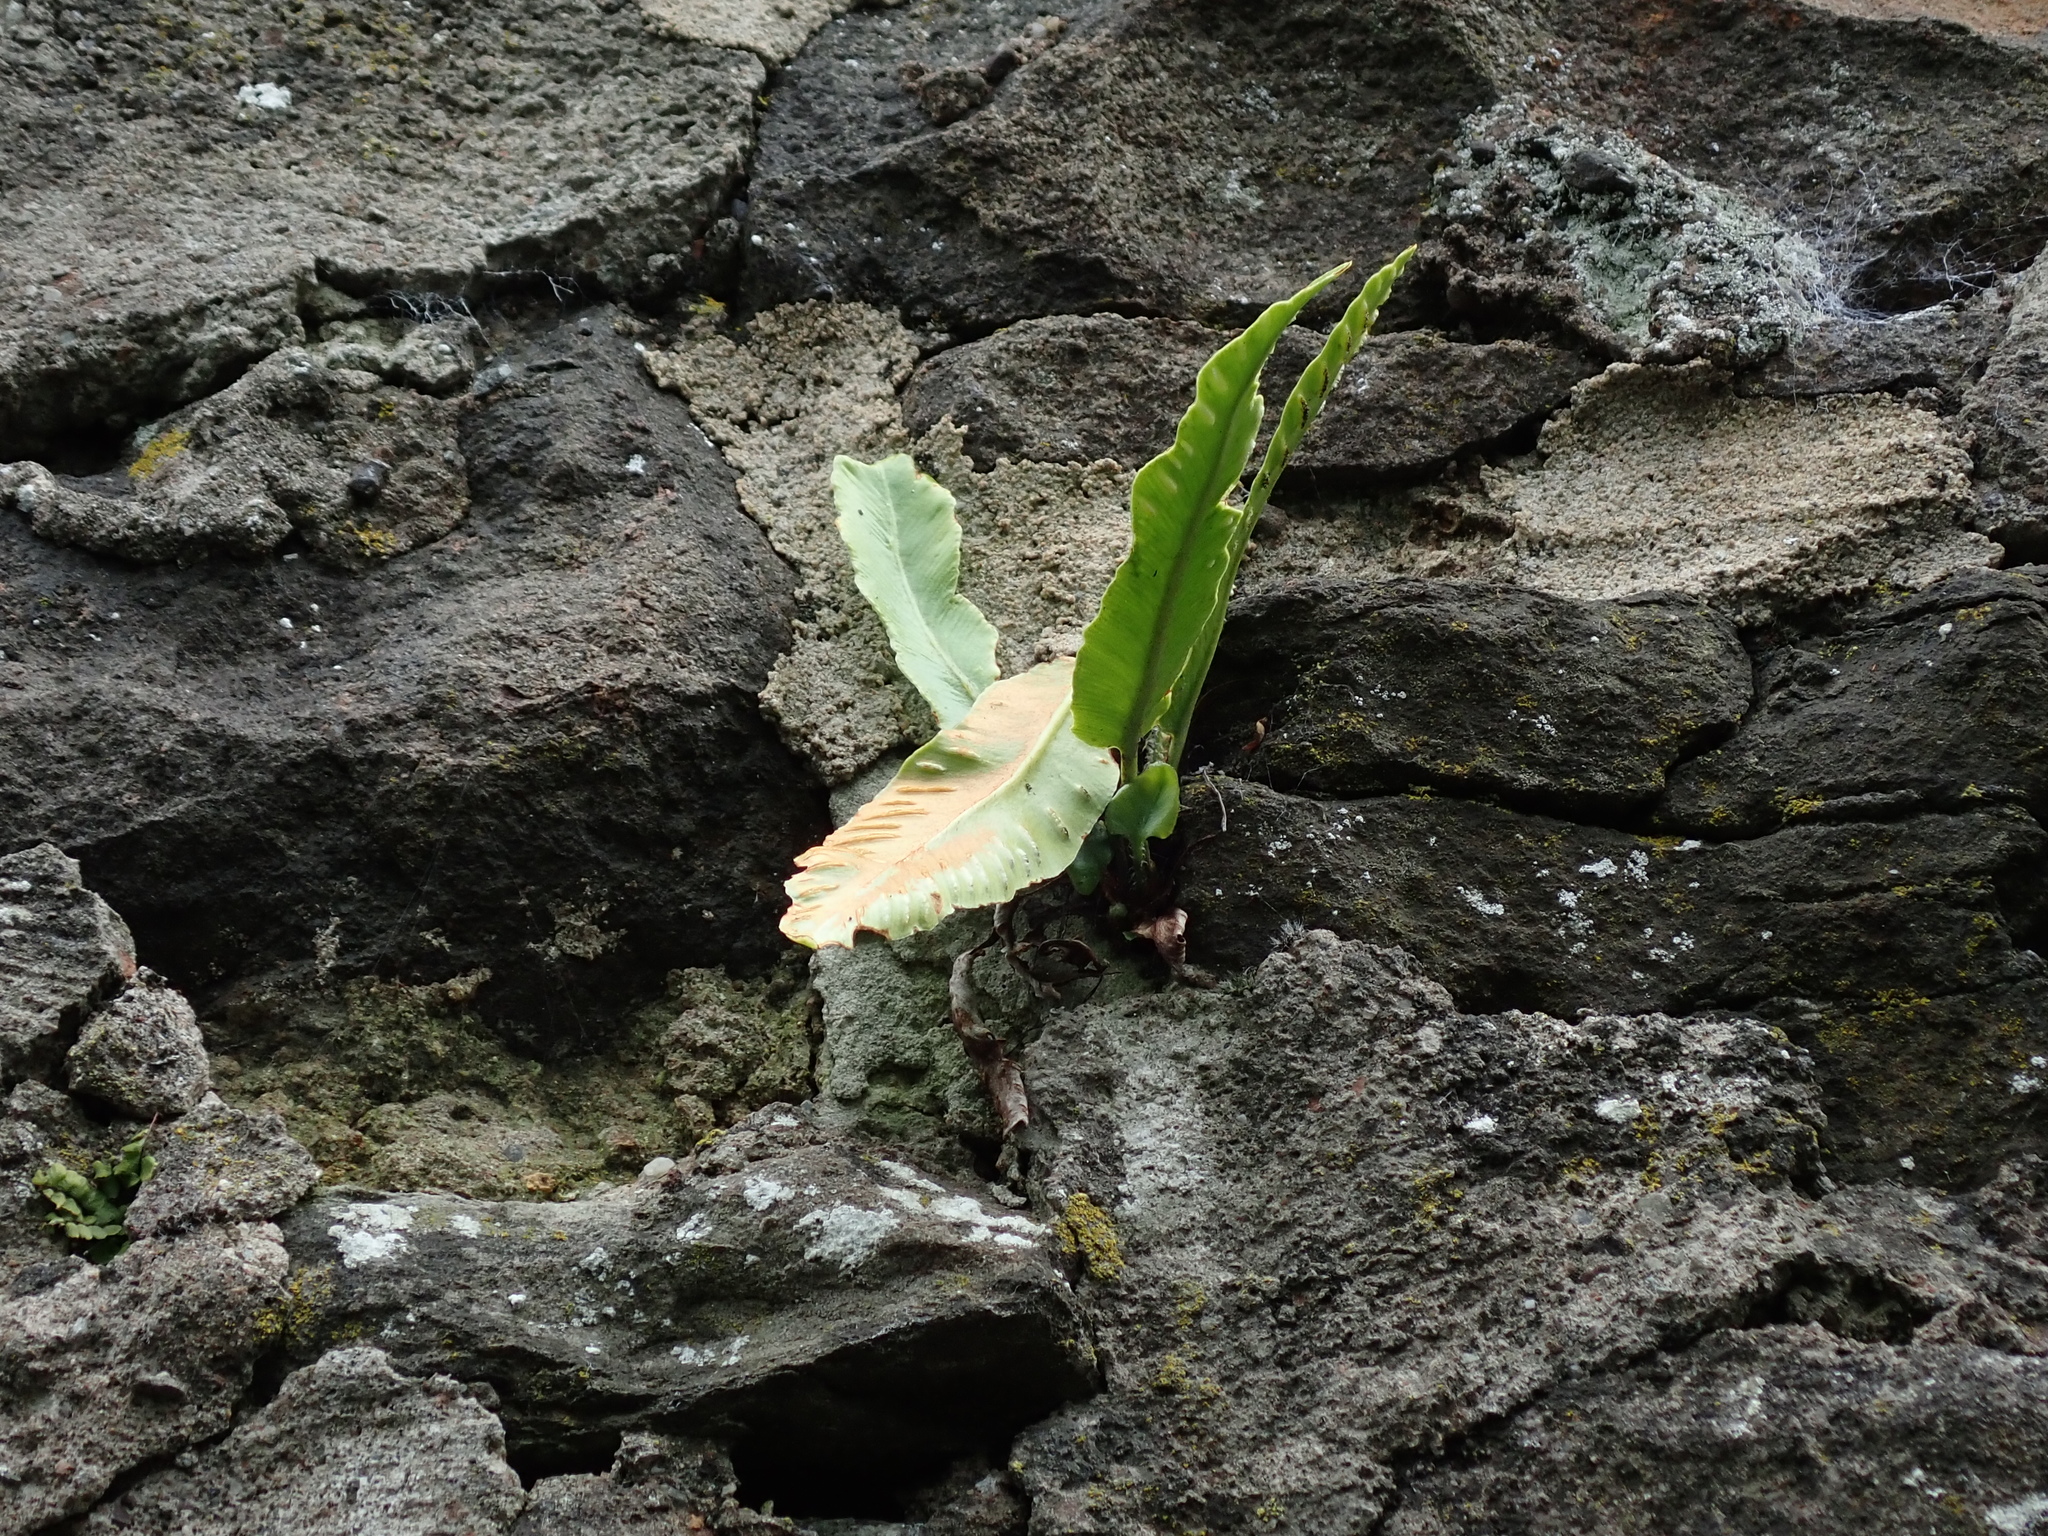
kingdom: Plantae
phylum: Tracheophyta
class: Polypodiopsida
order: Polypodiales
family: Aspleniaceae
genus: Asplenium
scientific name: Asplenium scolopendrium
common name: Hart's-tongue fern
